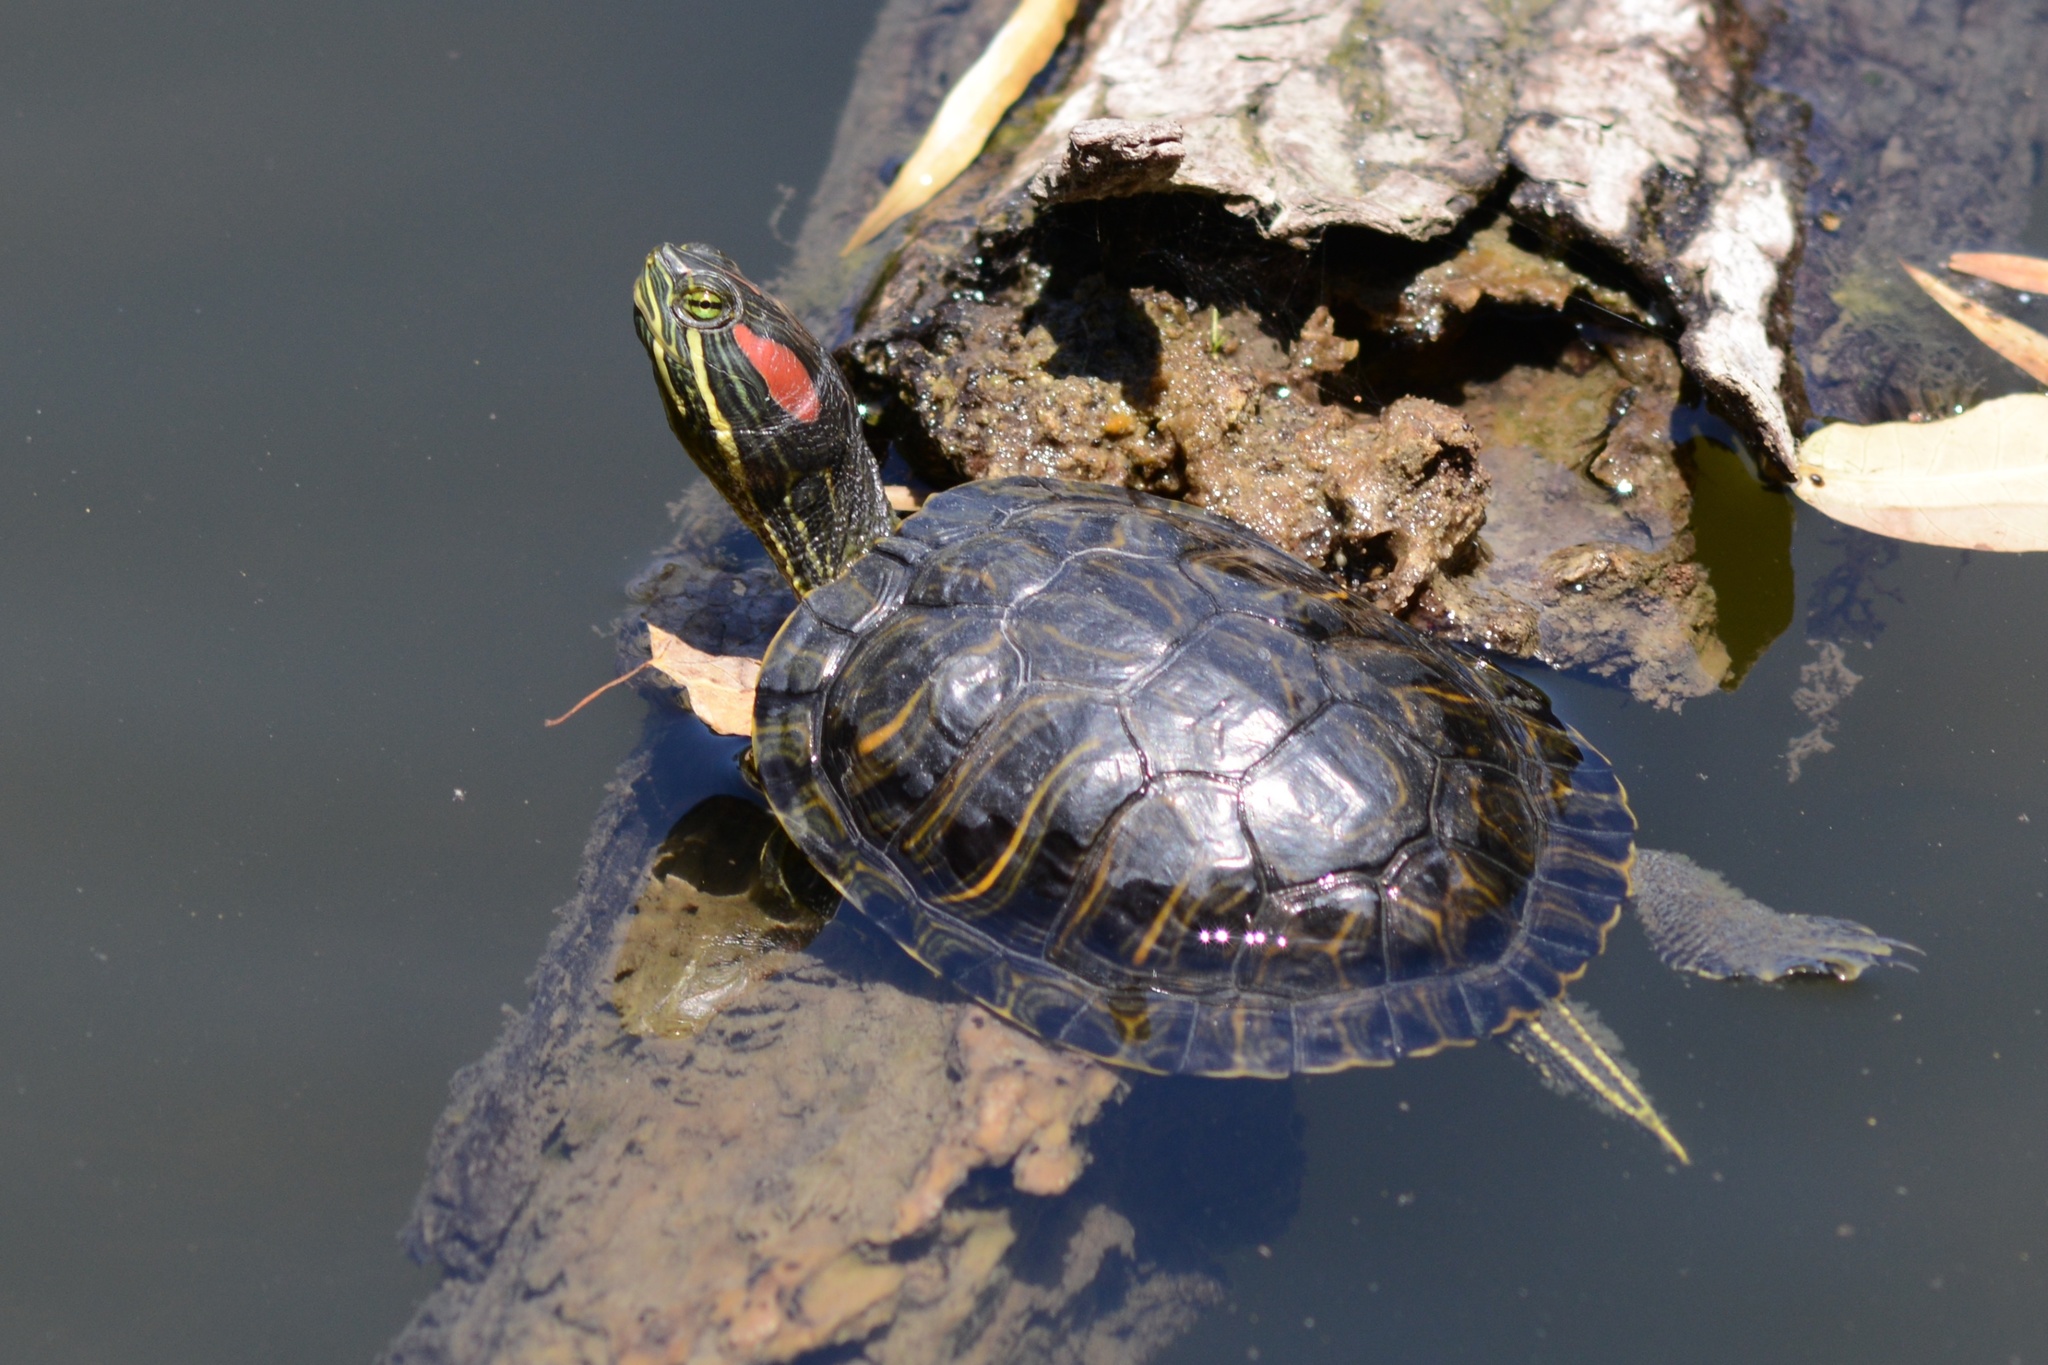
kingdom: Animalia
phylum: Chordata
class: Testudines
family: Emydidae
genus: Trachemys
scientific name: Trachemys scripta
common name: Slider
